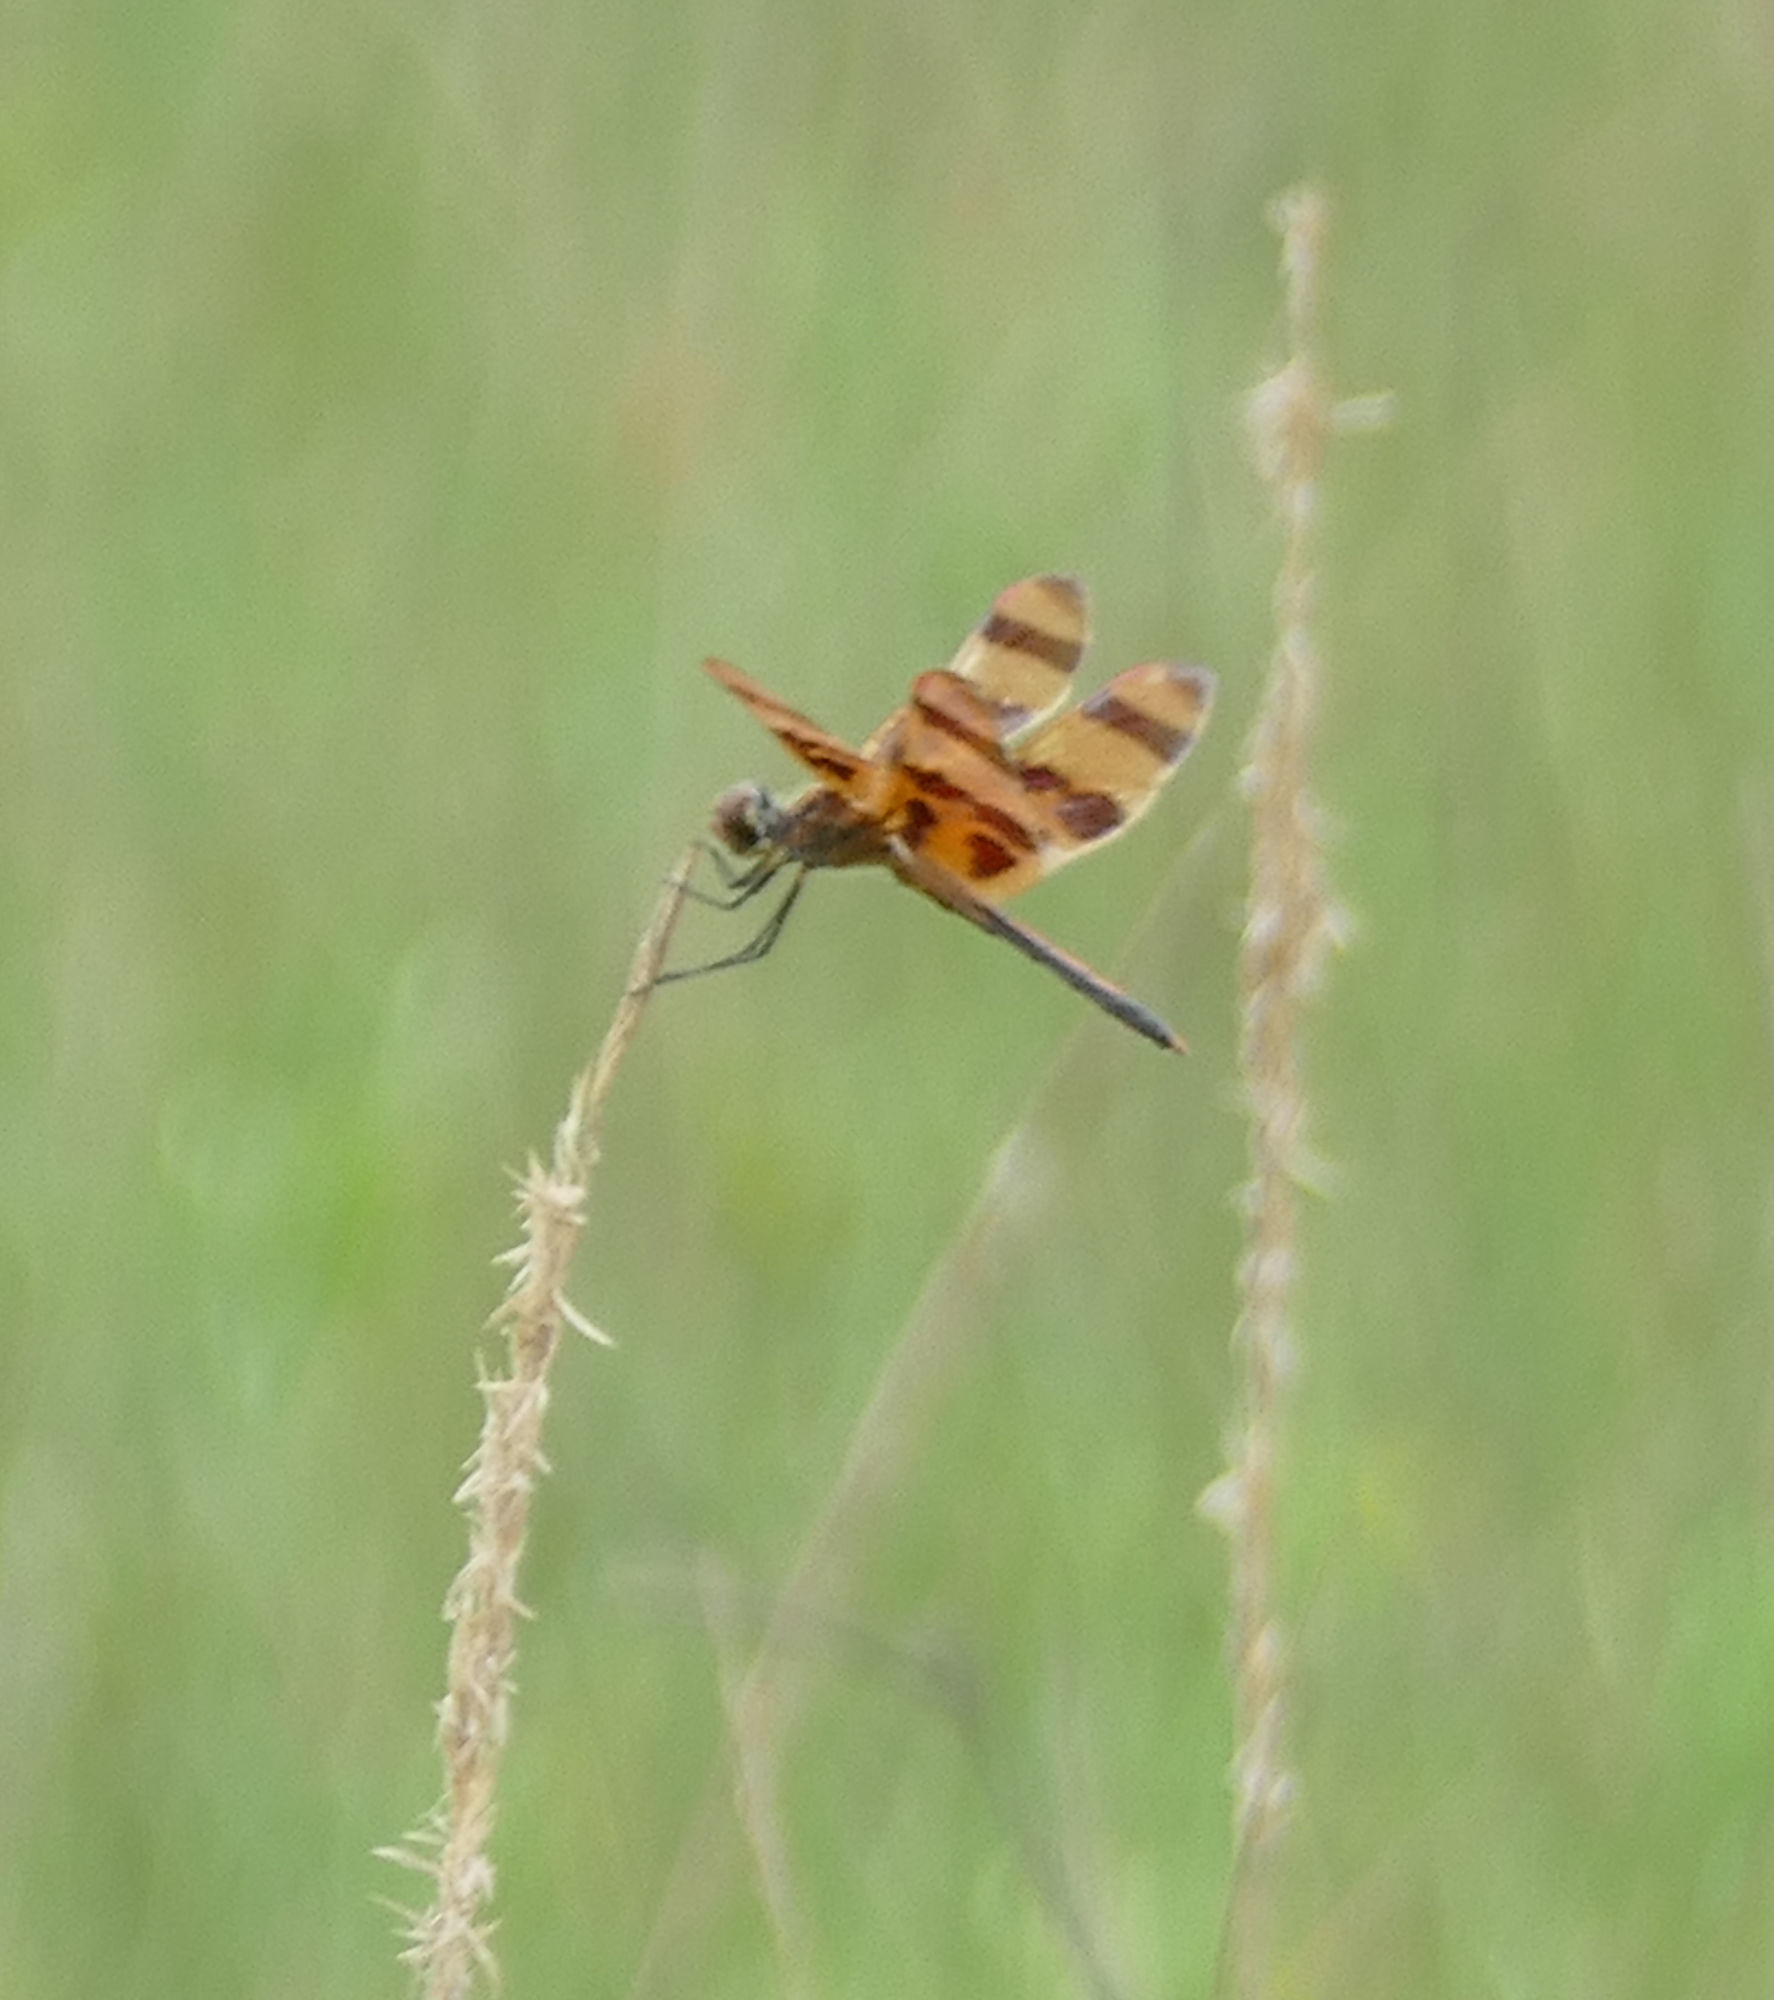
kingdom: Animalia
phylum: Arthropoda
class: Insecta
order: Odonata
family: Libellulidae
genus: Celithemis
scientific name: Celithemis eponina
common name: Halloween pennant
